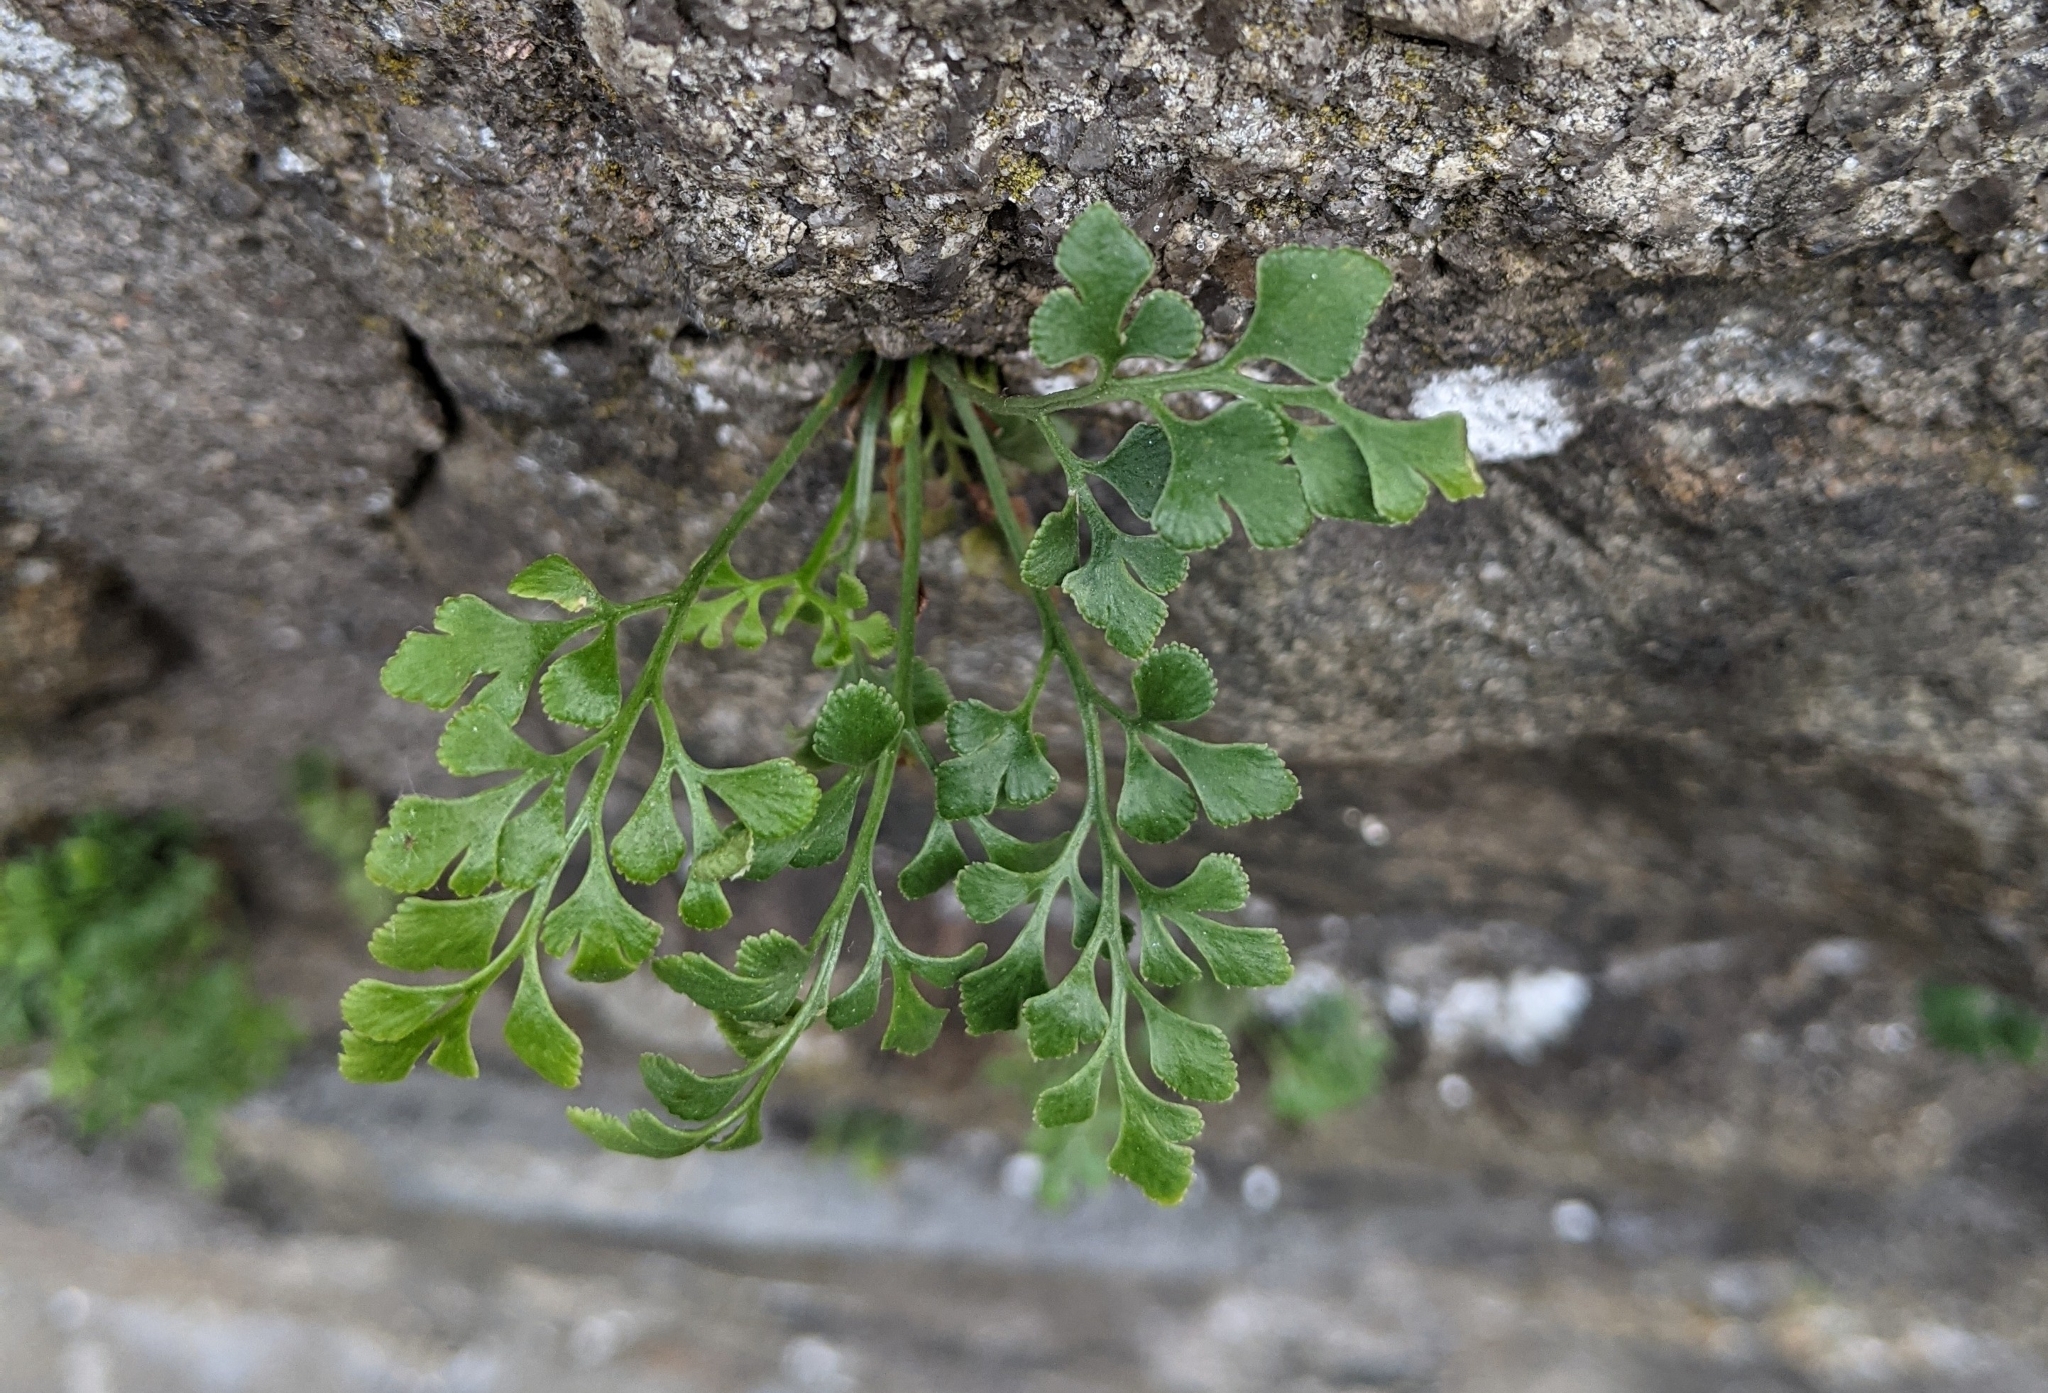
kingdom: Plantae
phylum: Tracheophyta
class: Polypodiopsida
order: Polypodiales
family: Aspleniaceae
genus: Asplenium
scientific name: Asplenium ruta-muraria
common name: Wall-rue
